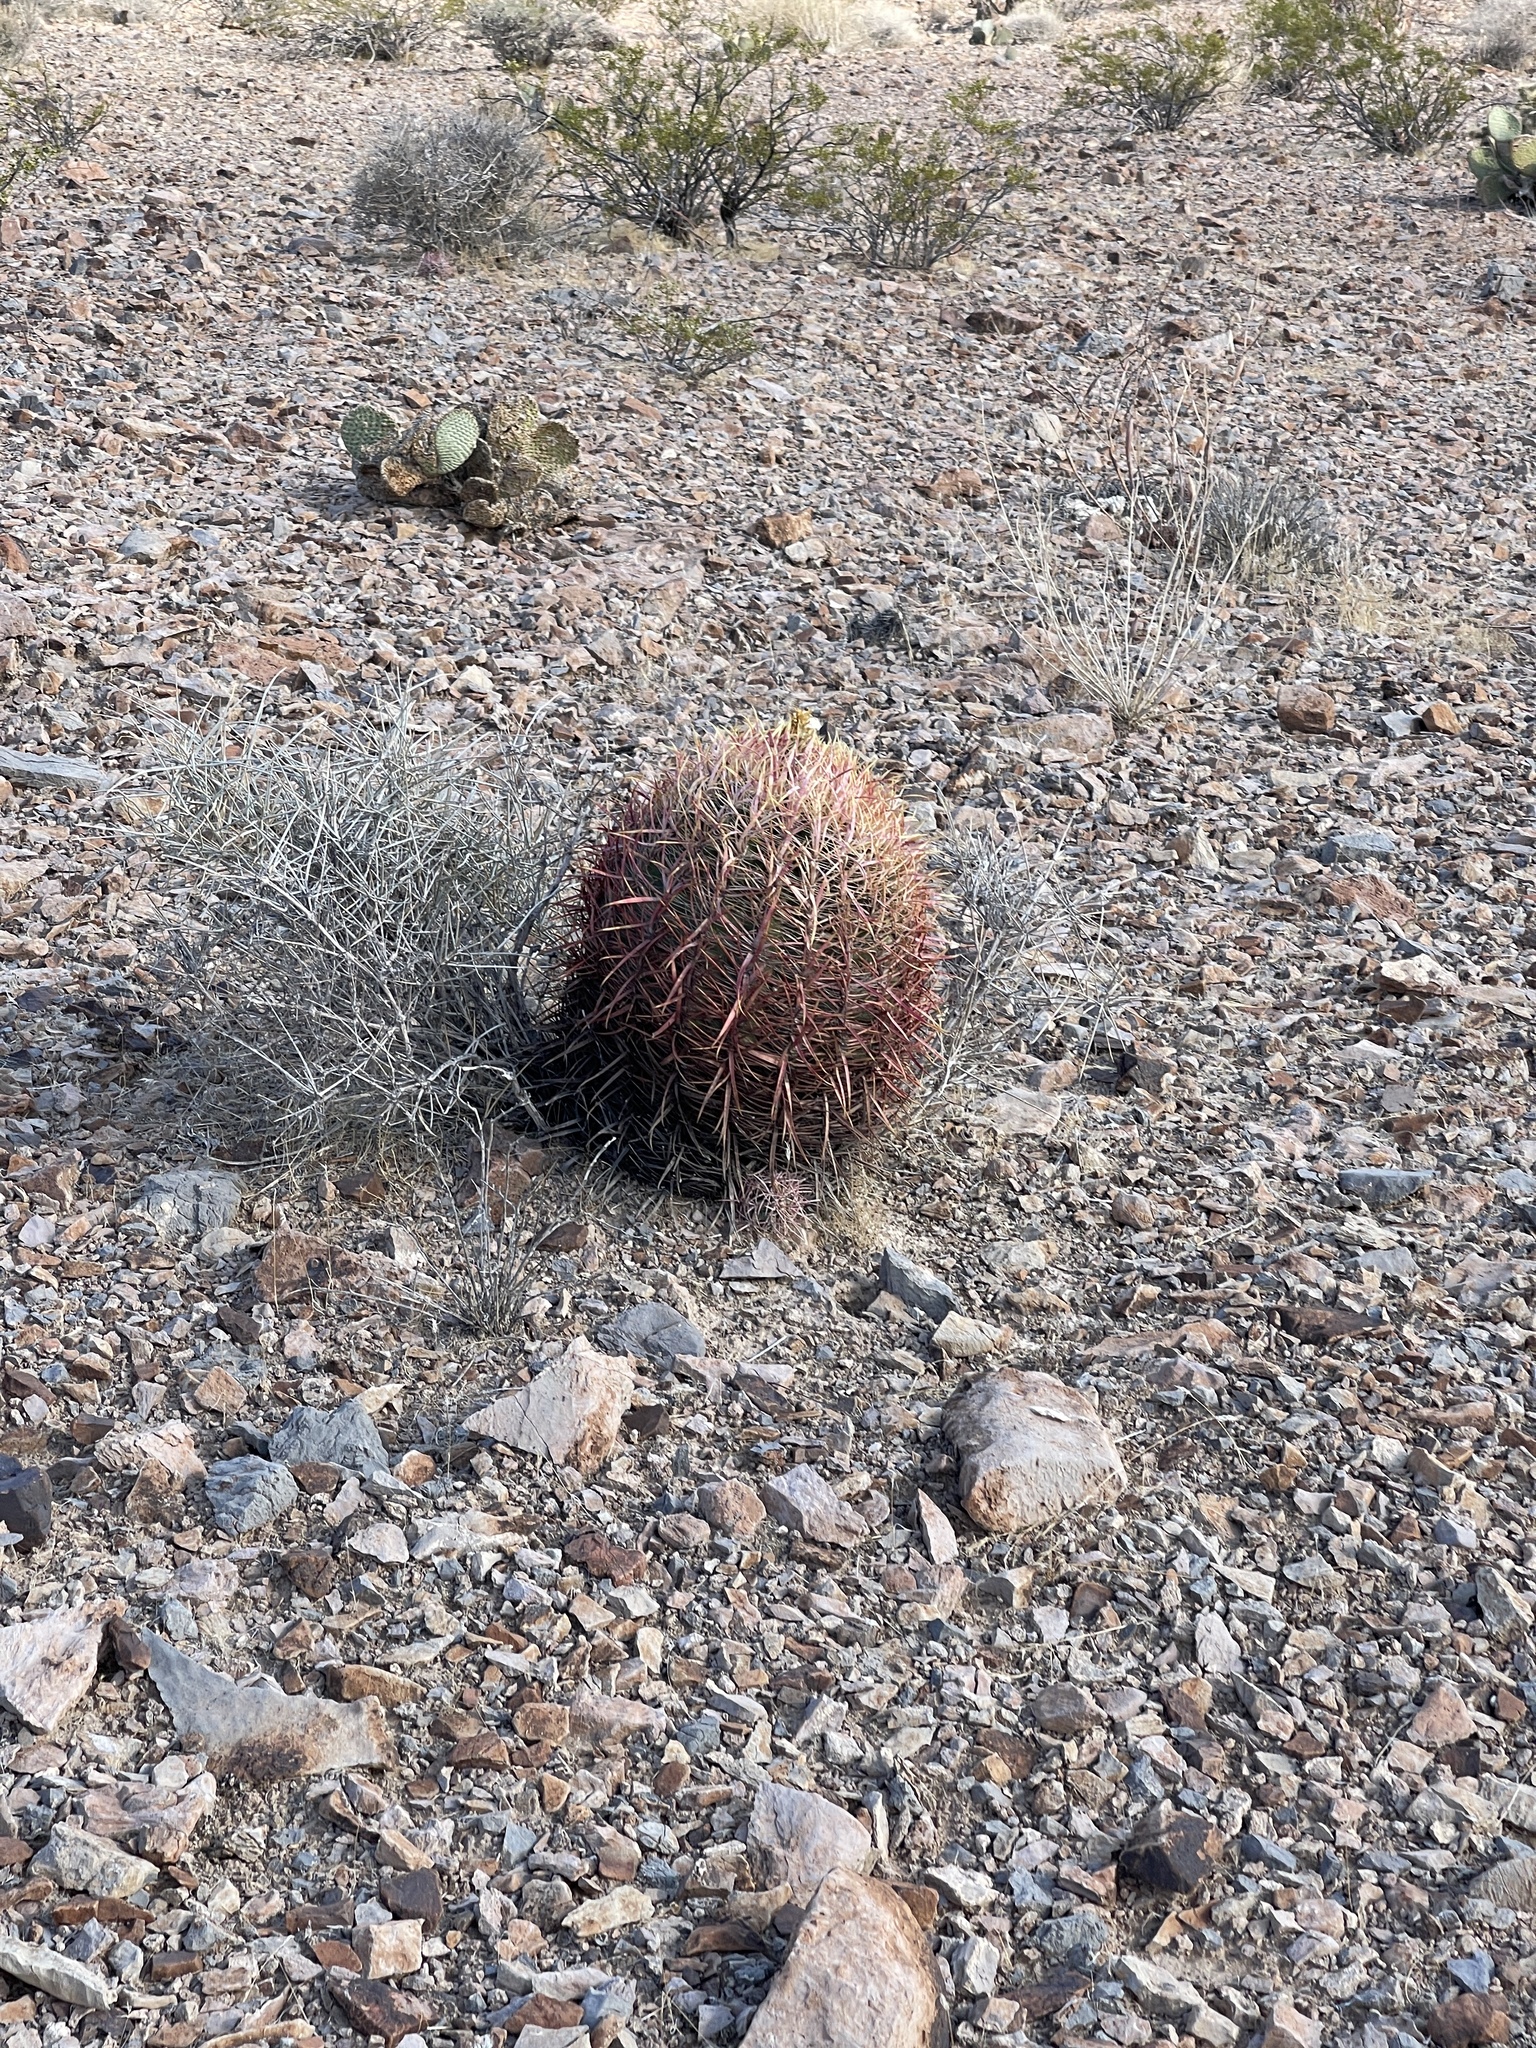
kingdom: Plantae
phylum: Tracheophyta
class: Magnoliopsida
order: Caryophyllales
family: Cactaceae
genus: Ferocactus
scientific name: Ferocactus cylindraceus
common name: California barrel cactus
